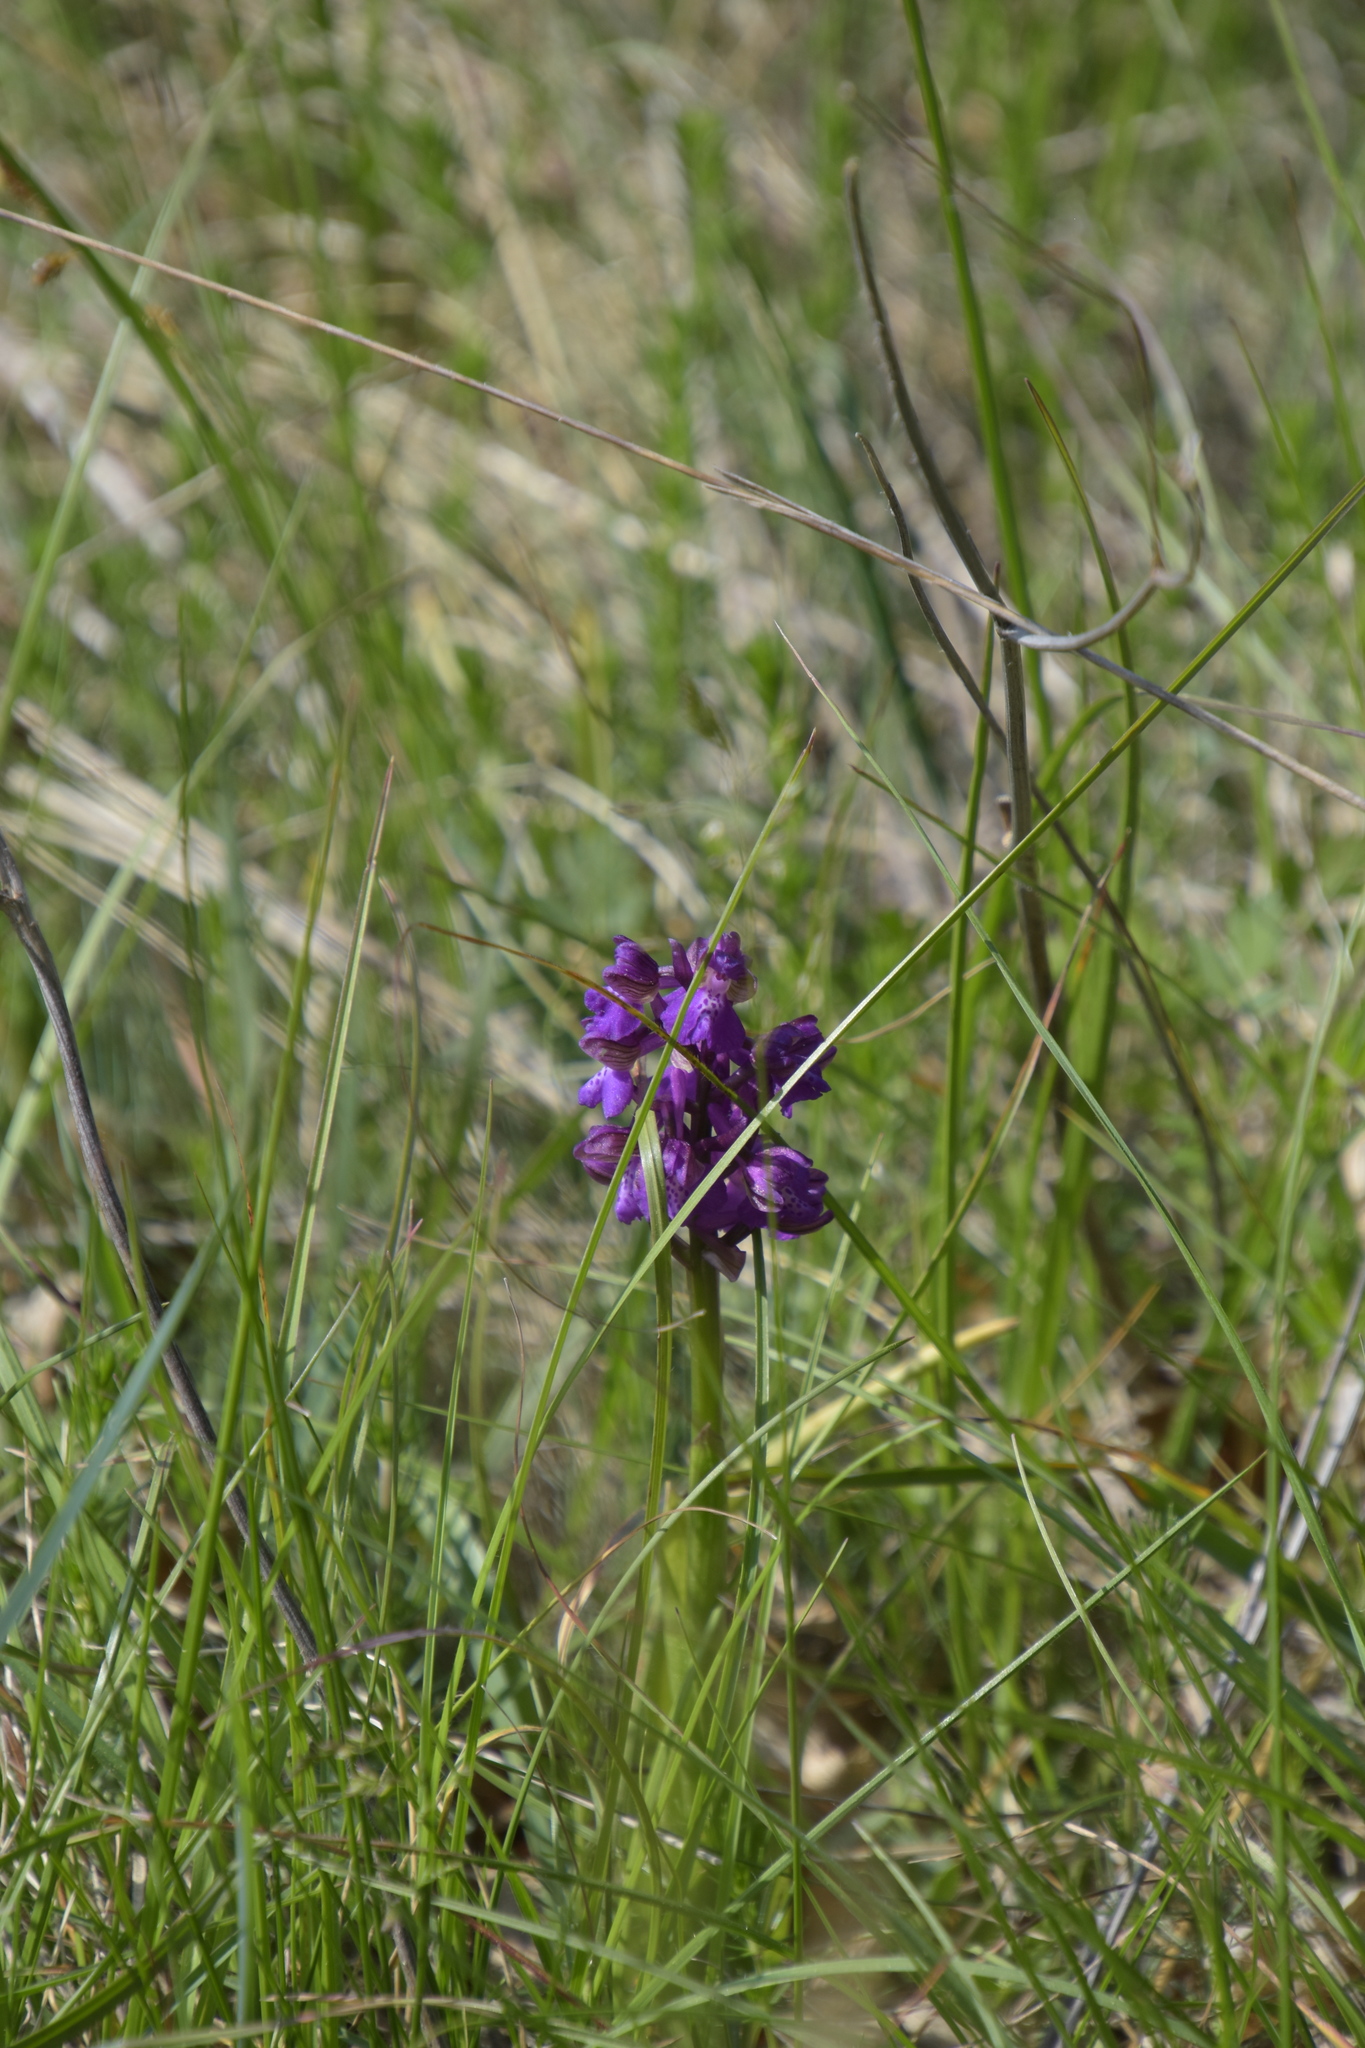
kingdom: Plantae
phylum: Tracheophyta
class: Liliopsida
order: Asparagales
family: Orchidaceae
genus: Anacamptis
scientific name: Anacamptis morio
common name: Green-winged orchid
